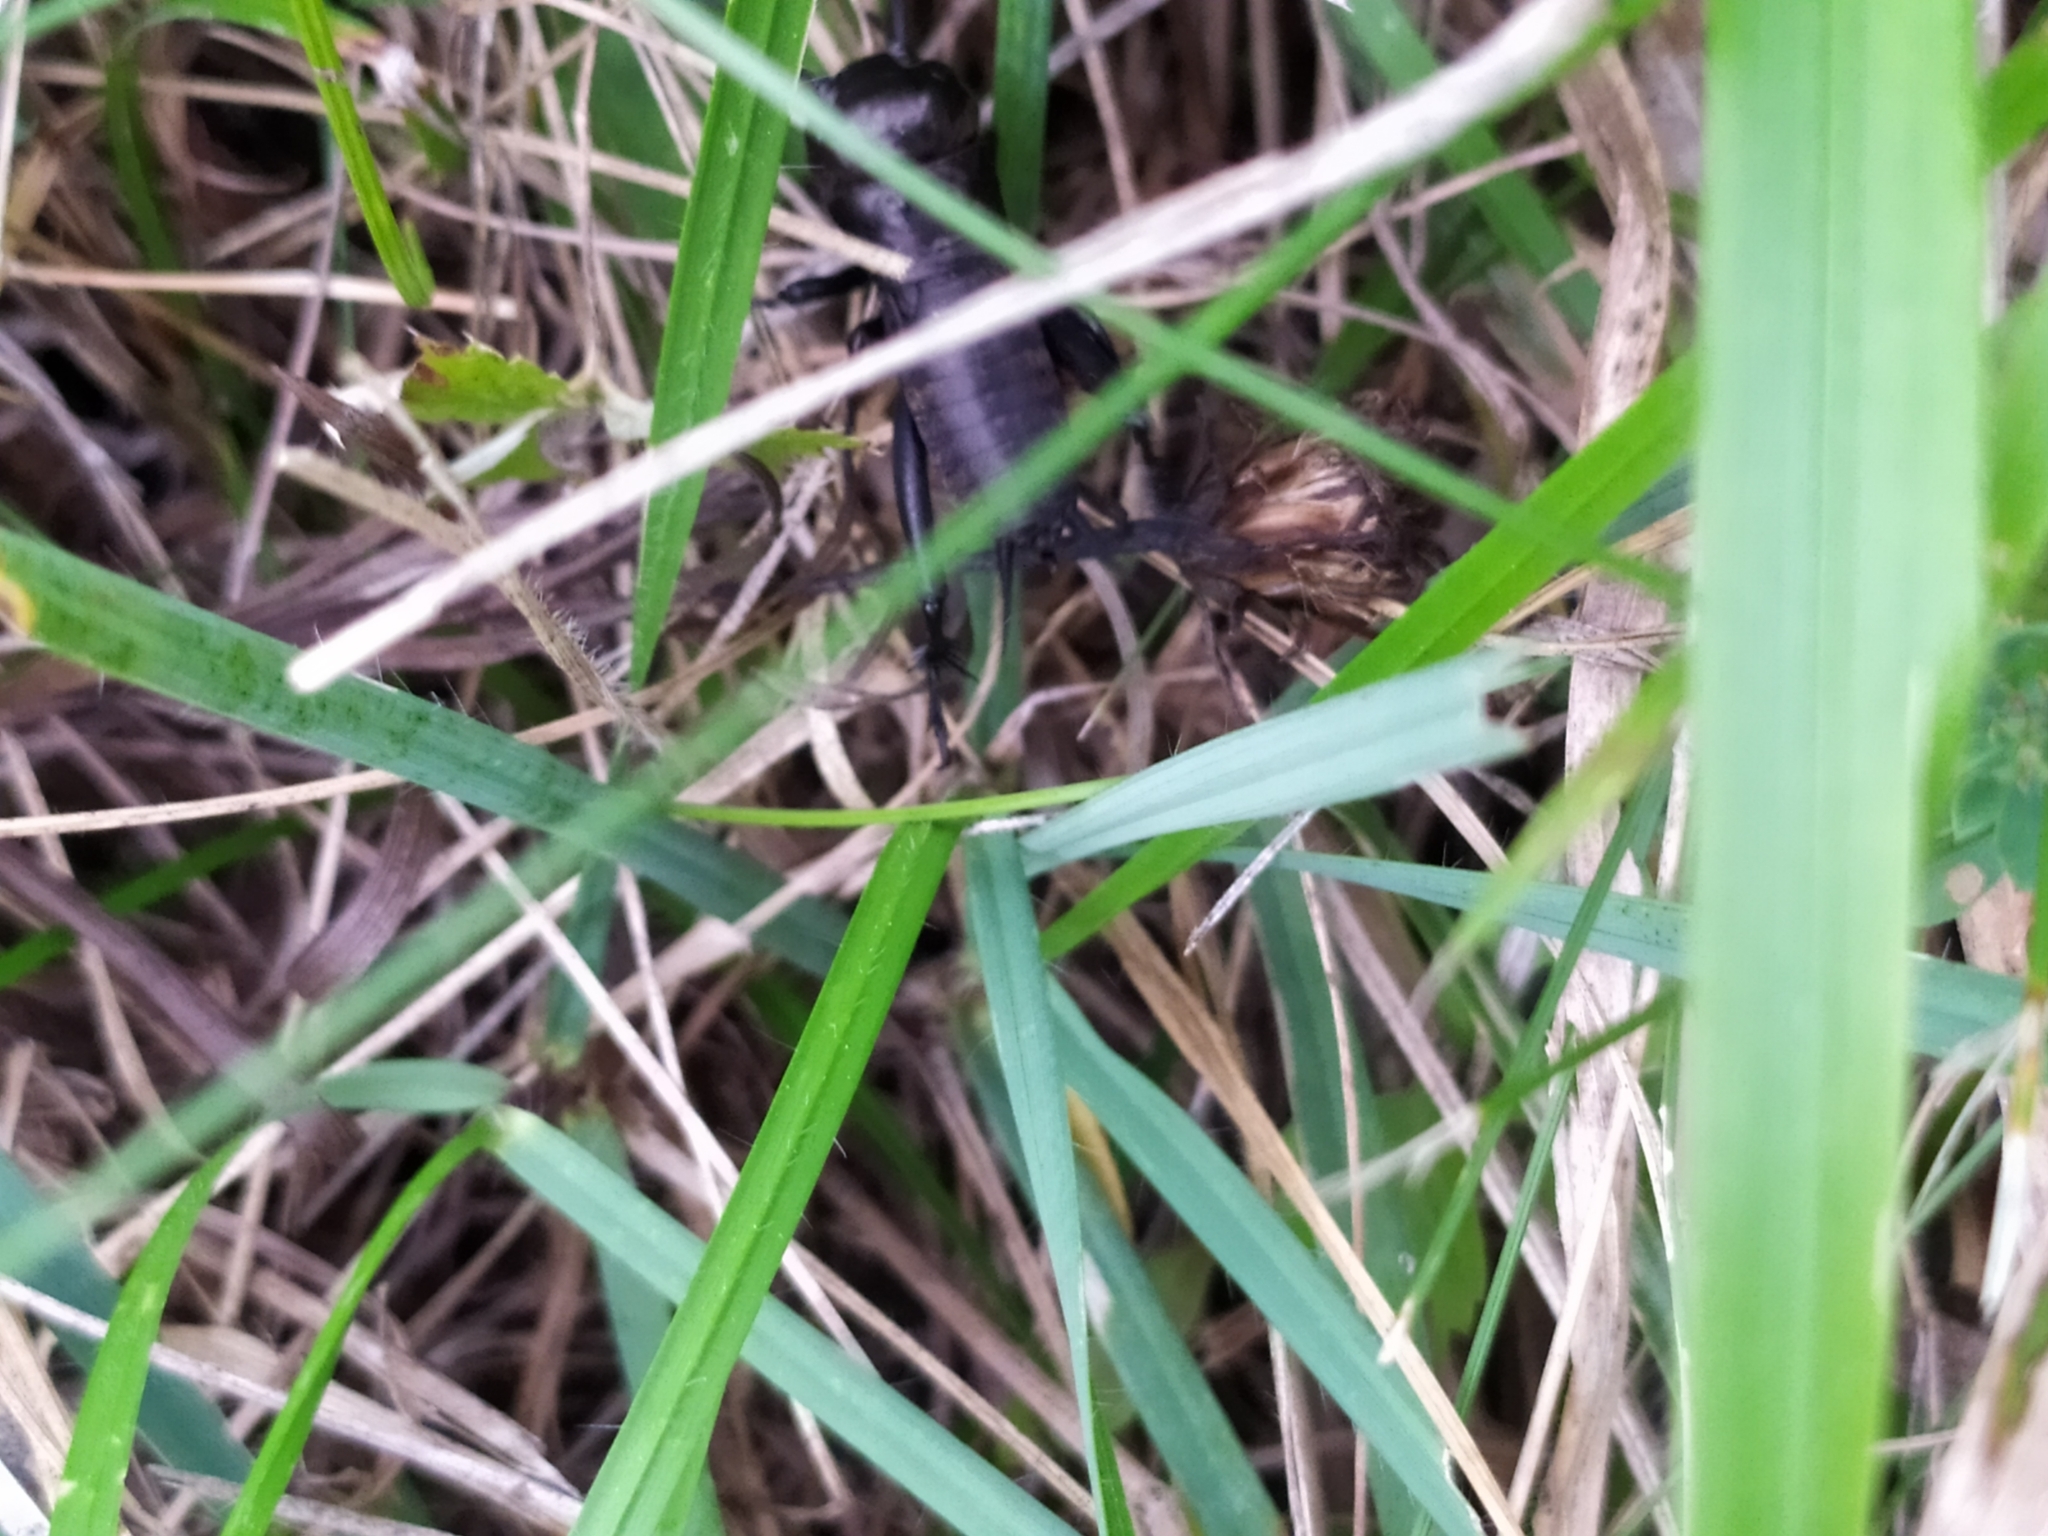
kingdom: Animalia
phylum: Arthropoda
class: Insecta
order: Orthoptera
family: Gryllidae
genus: Gryllus
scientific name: Gryllus campestris
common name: Field cricket
